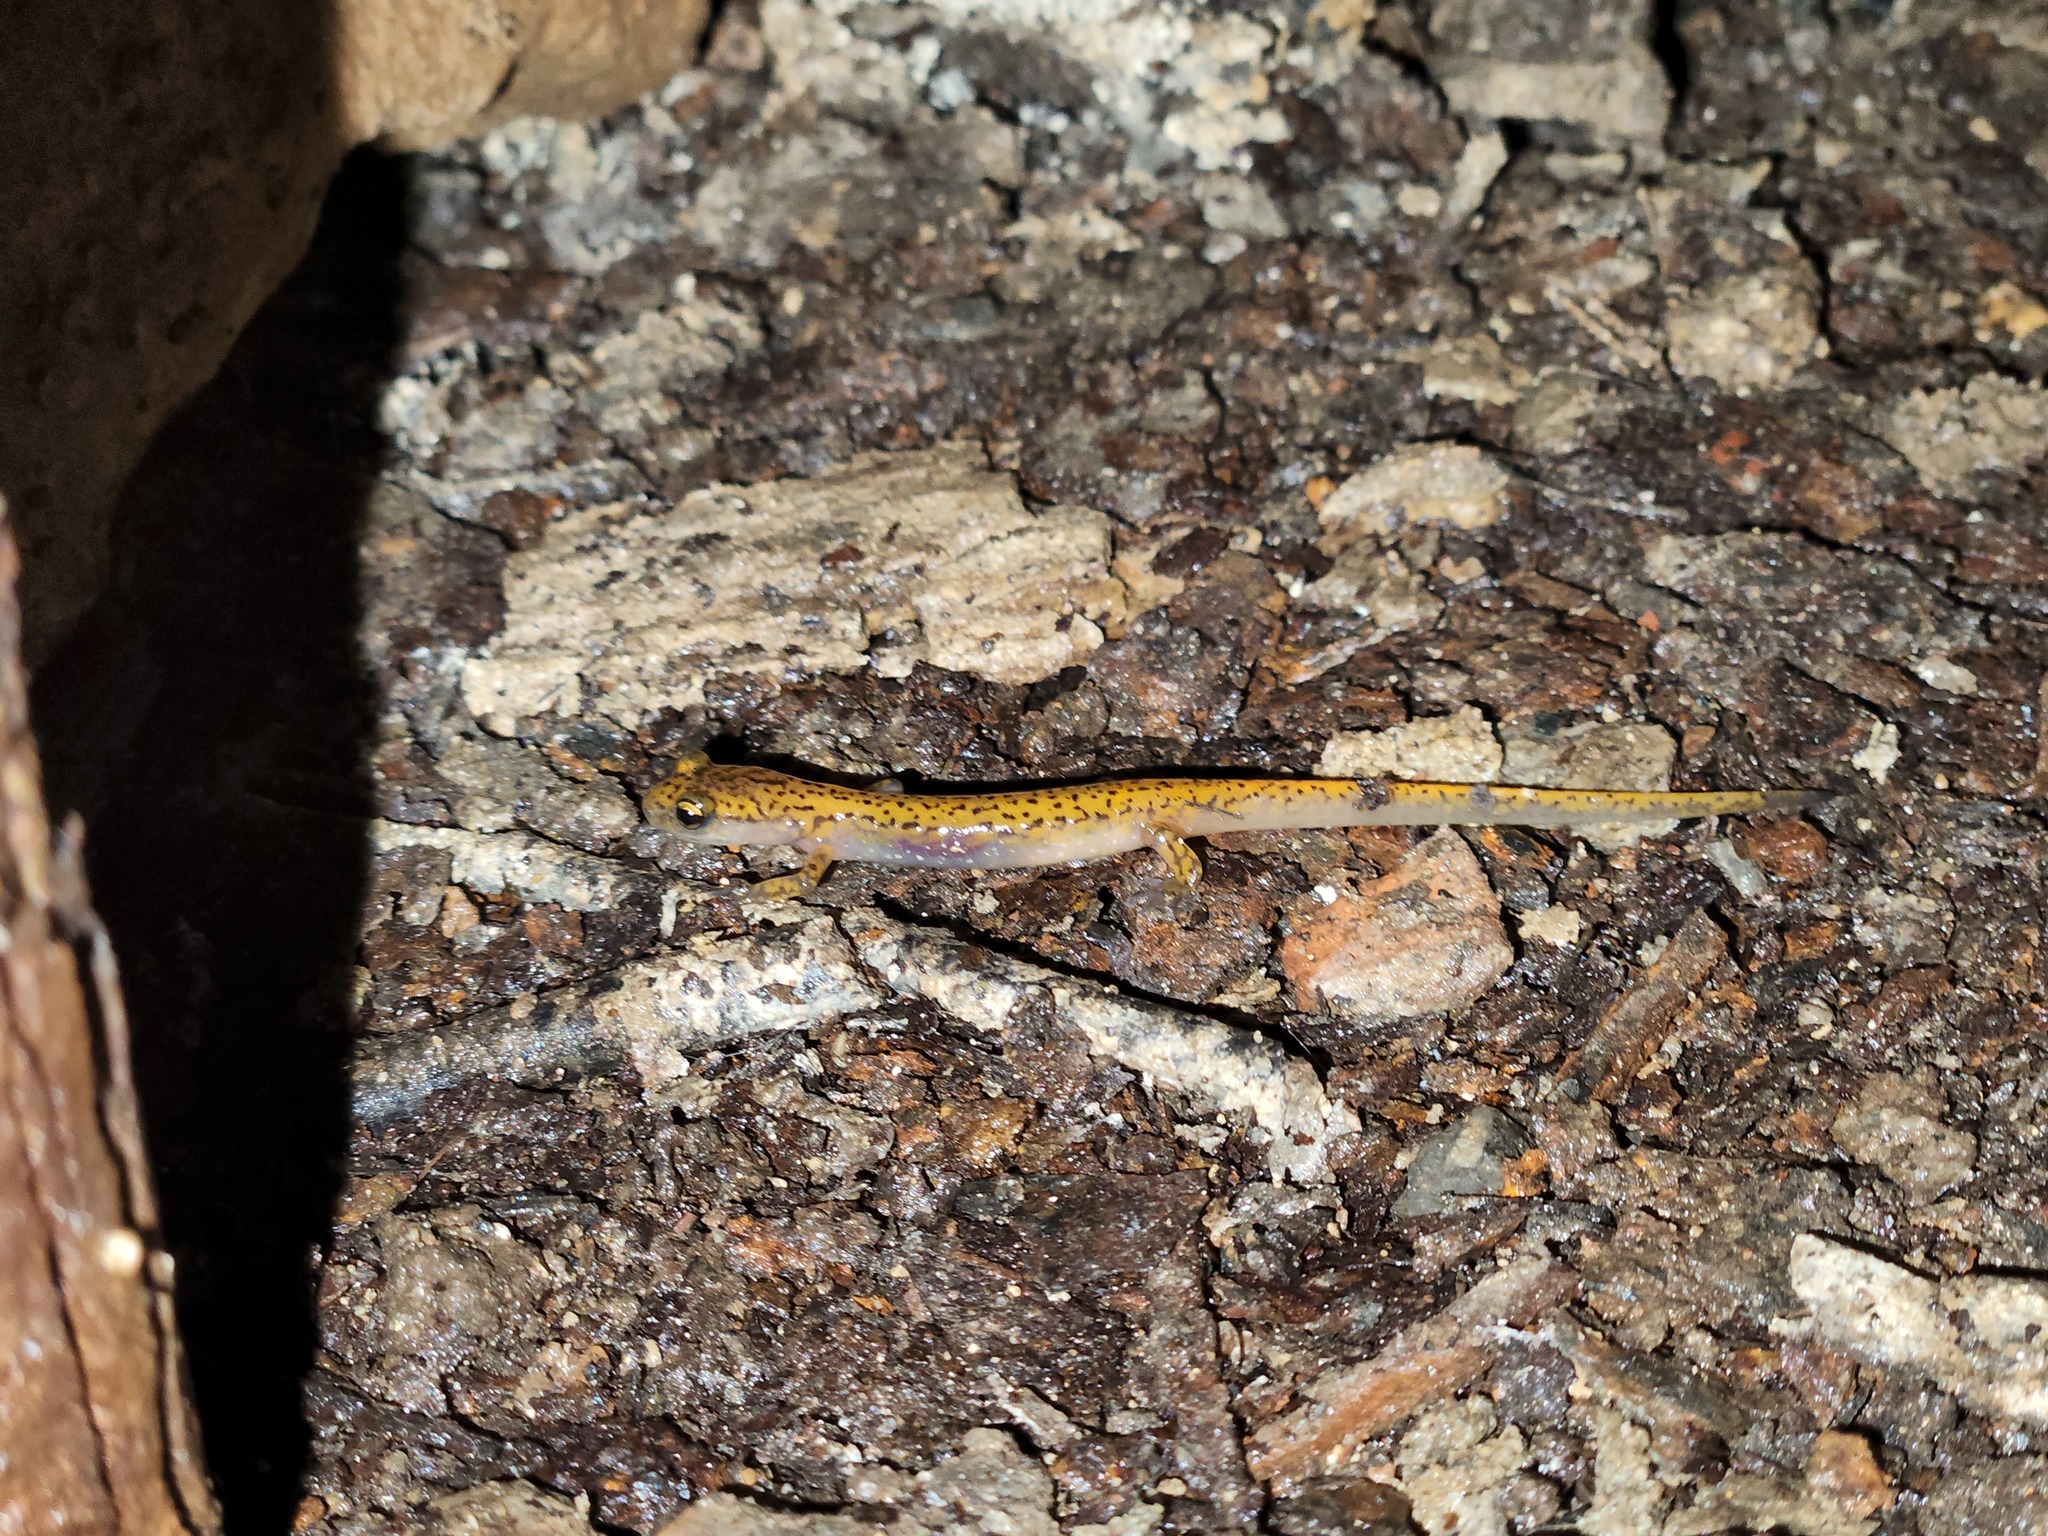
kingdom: Animalia
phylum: Chordata
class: Amphibia
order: Caudata
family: Plethodontidae
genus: Eurycea
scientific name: Eurycea lucifuga
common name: Cave salamander
